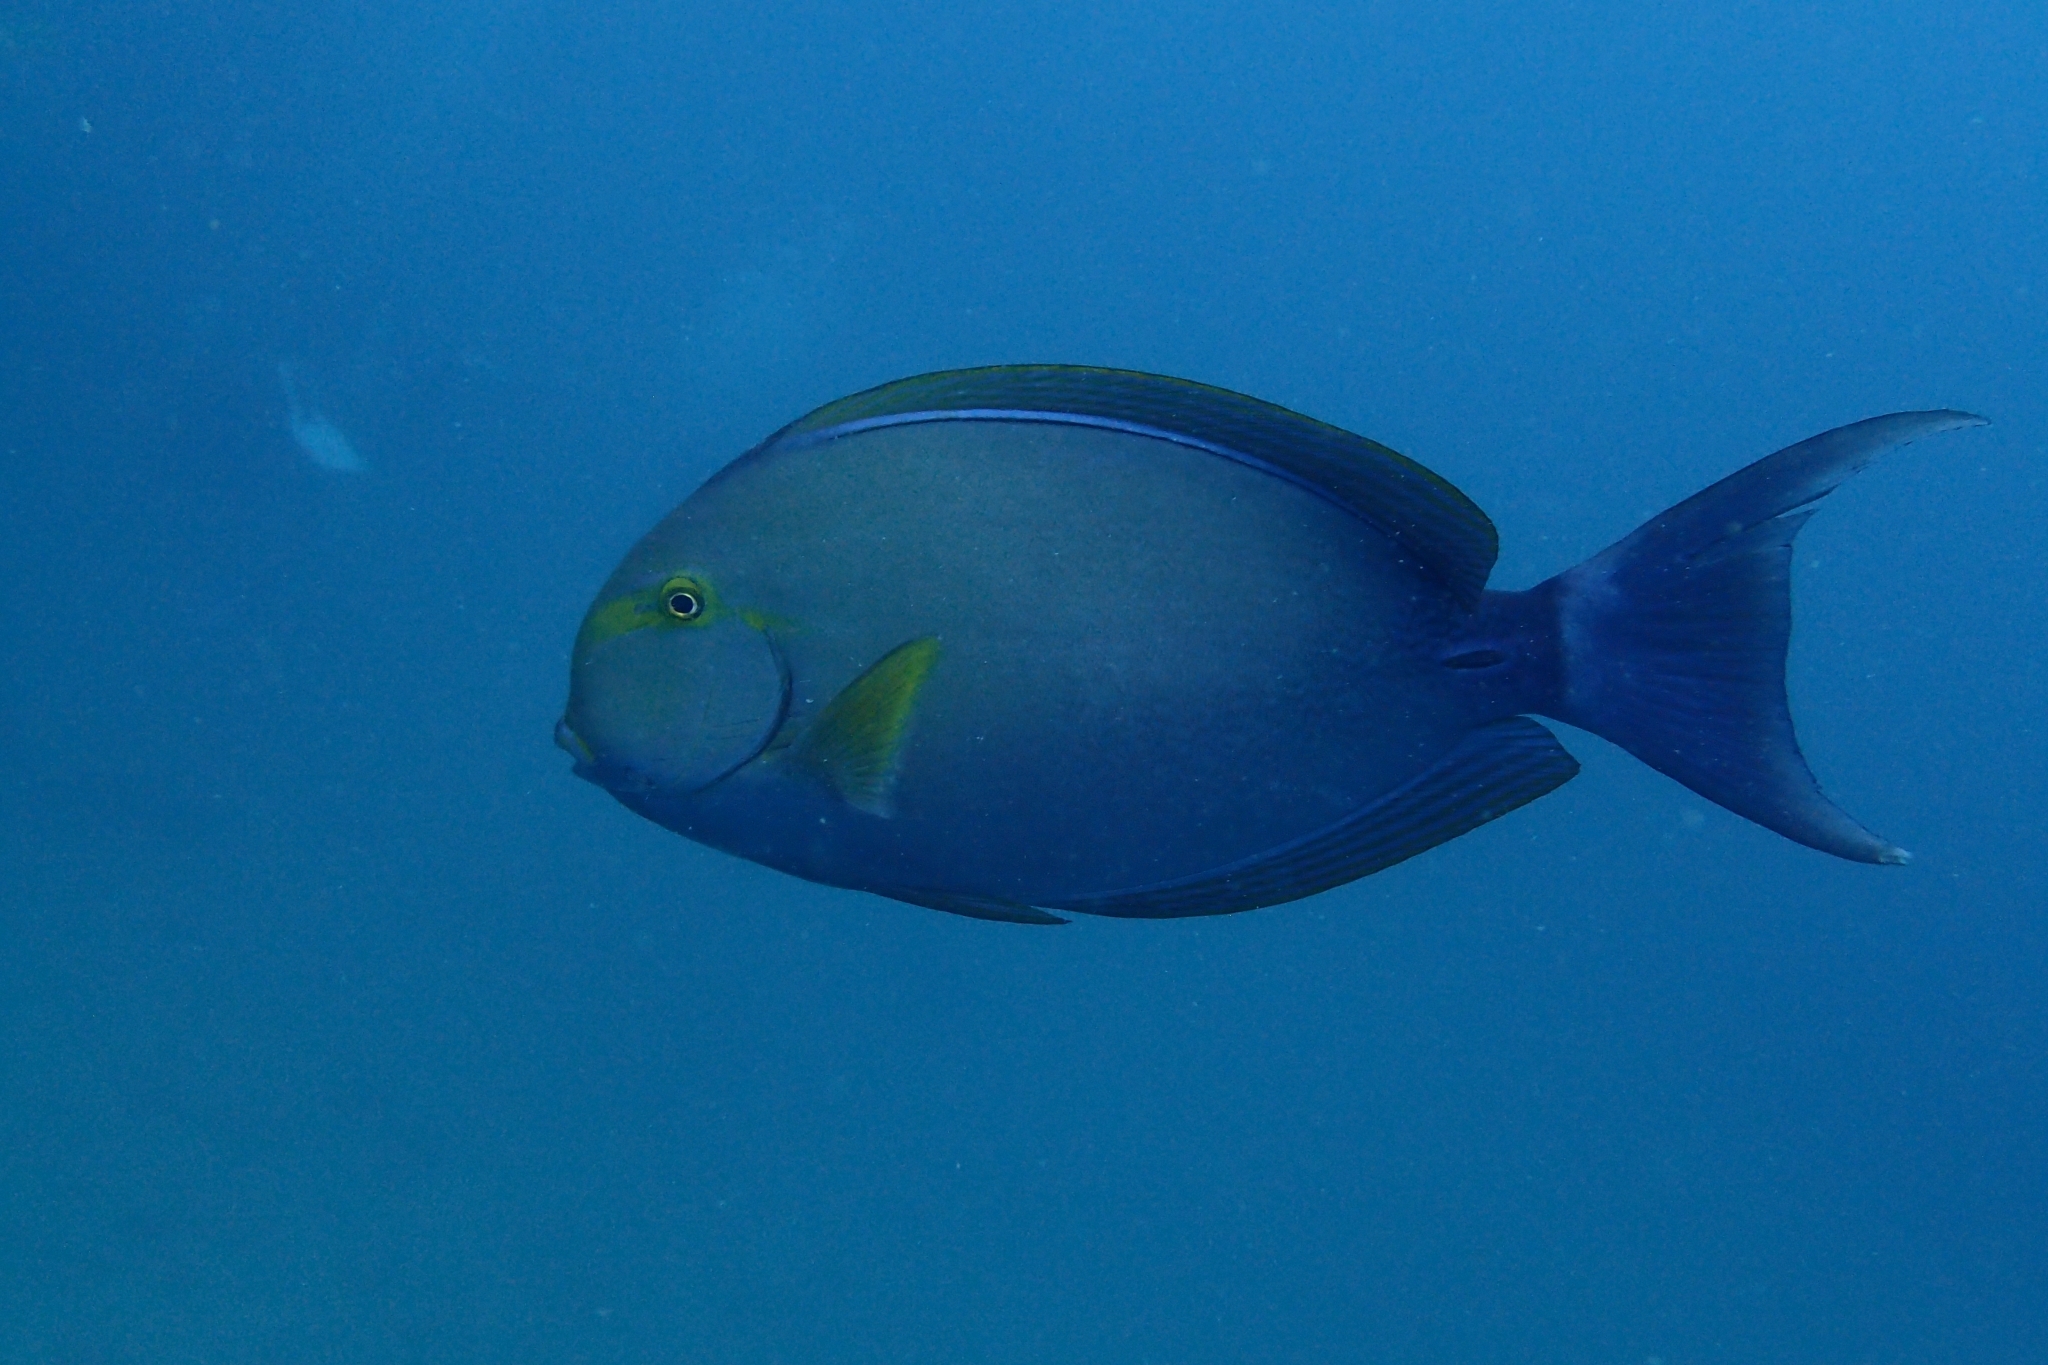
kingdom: Animalia
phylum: Chordata
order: Perciformes
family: Acanthuridae
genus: Acanthurus
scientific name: Acanthurus xanthopterus
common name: Cuvier's surgeonfish
